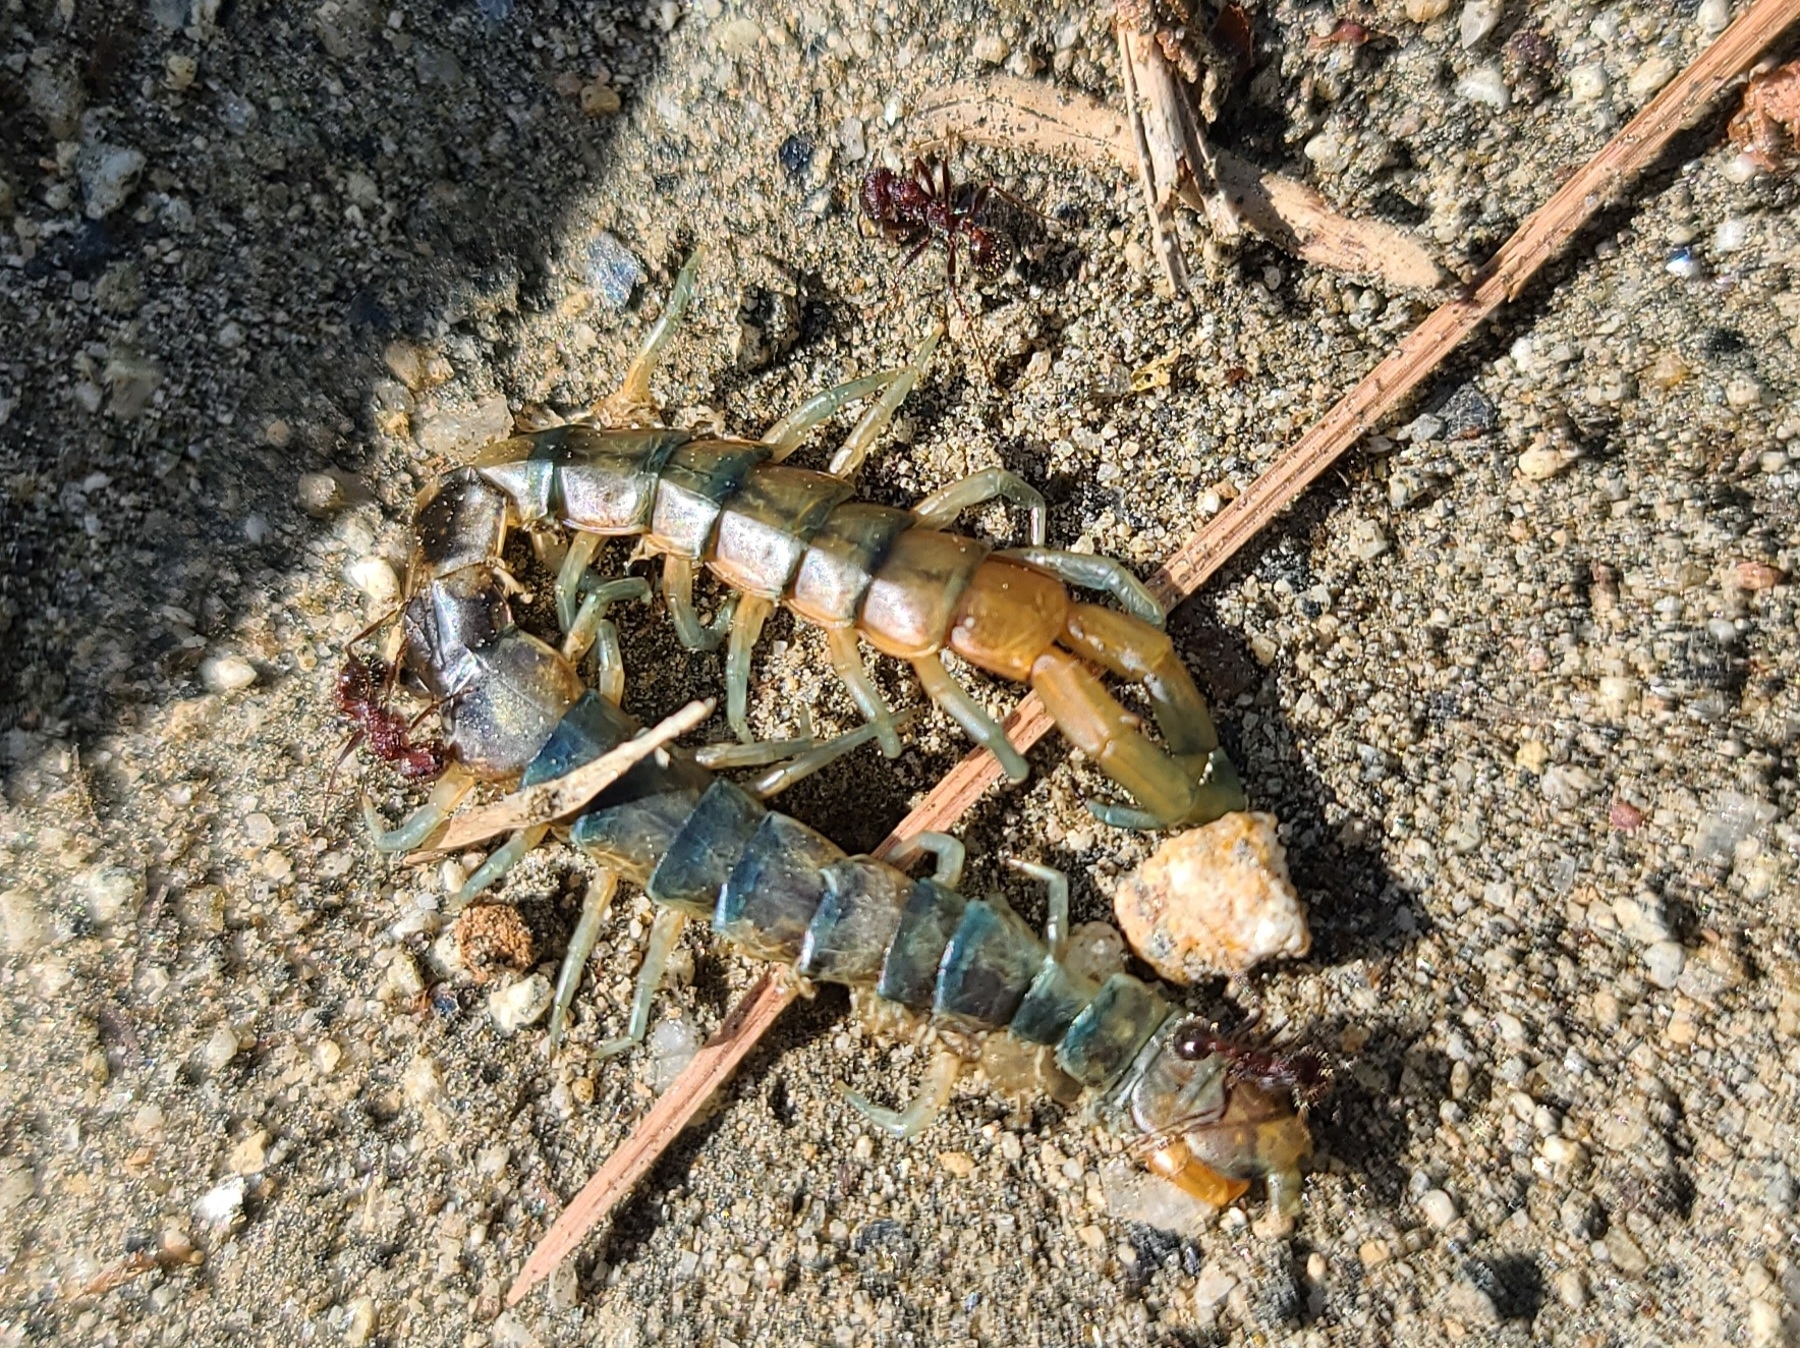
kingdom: Animalia
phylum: Arthropoda
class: Chilopoda
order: Scolopendromorpha
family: Scolopendridae
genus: Scolopendra
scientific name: Scolopendra polymorpha
